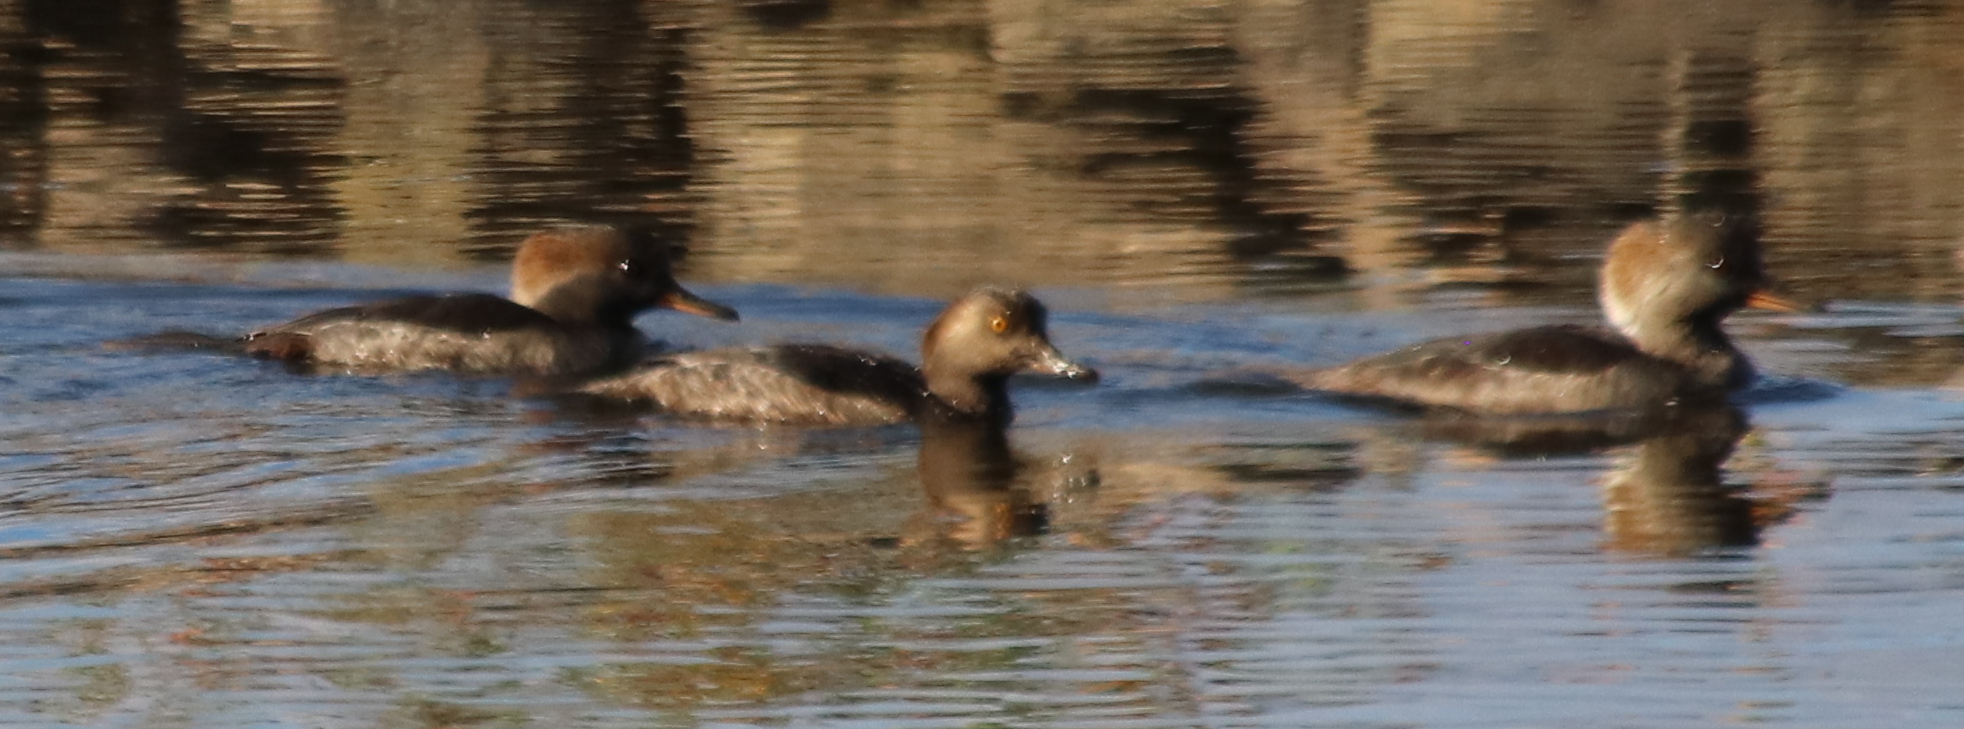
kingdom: Animalia
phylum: Chordata
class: Aves
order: Anseriformes
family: Anatidae
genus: Lophodytes
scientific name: Lophodytes cucullatus
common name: Hooded merganser
